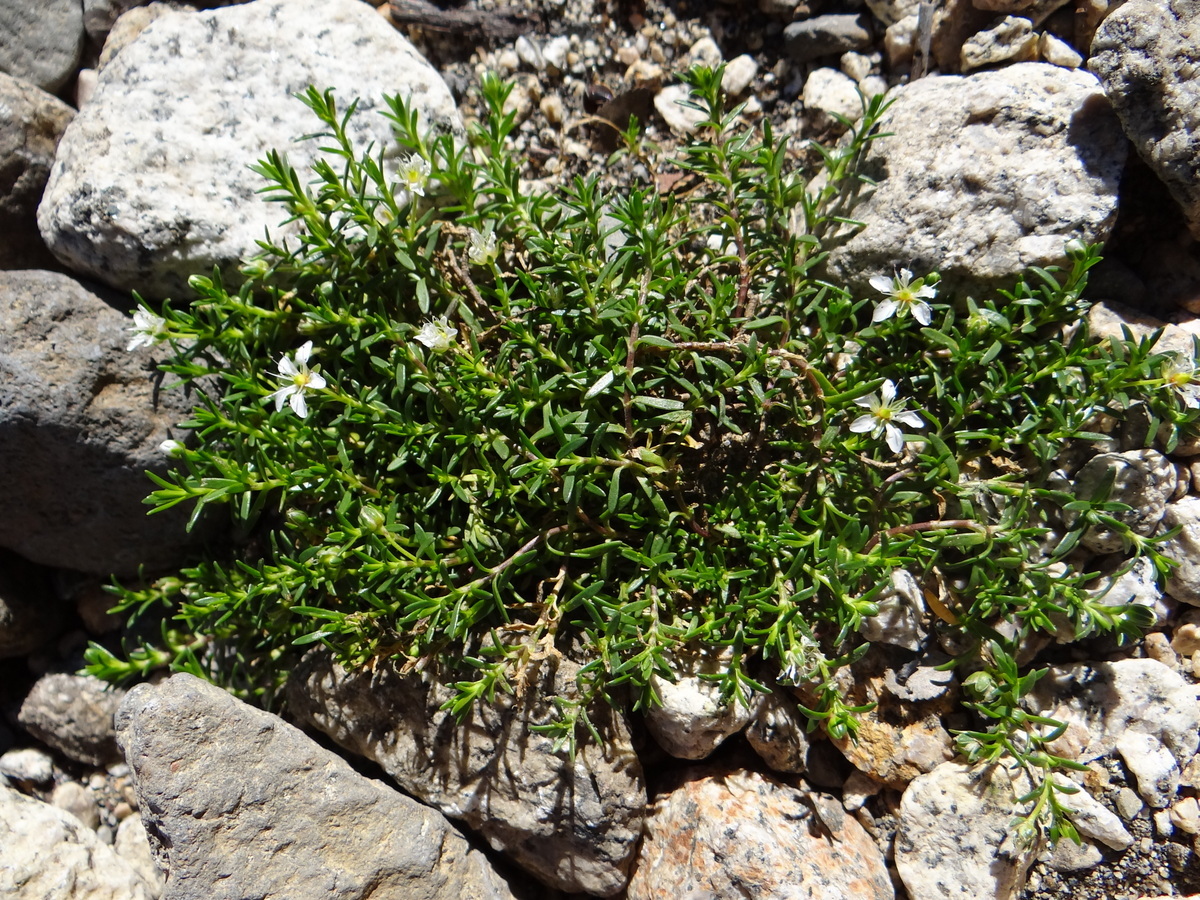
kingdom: Plantae
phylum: Tracheophyta
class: Magnoliopsida
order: Caryophyllales
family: Caryophyllaceae
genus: Arenaria
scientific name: Arenaria serpens
